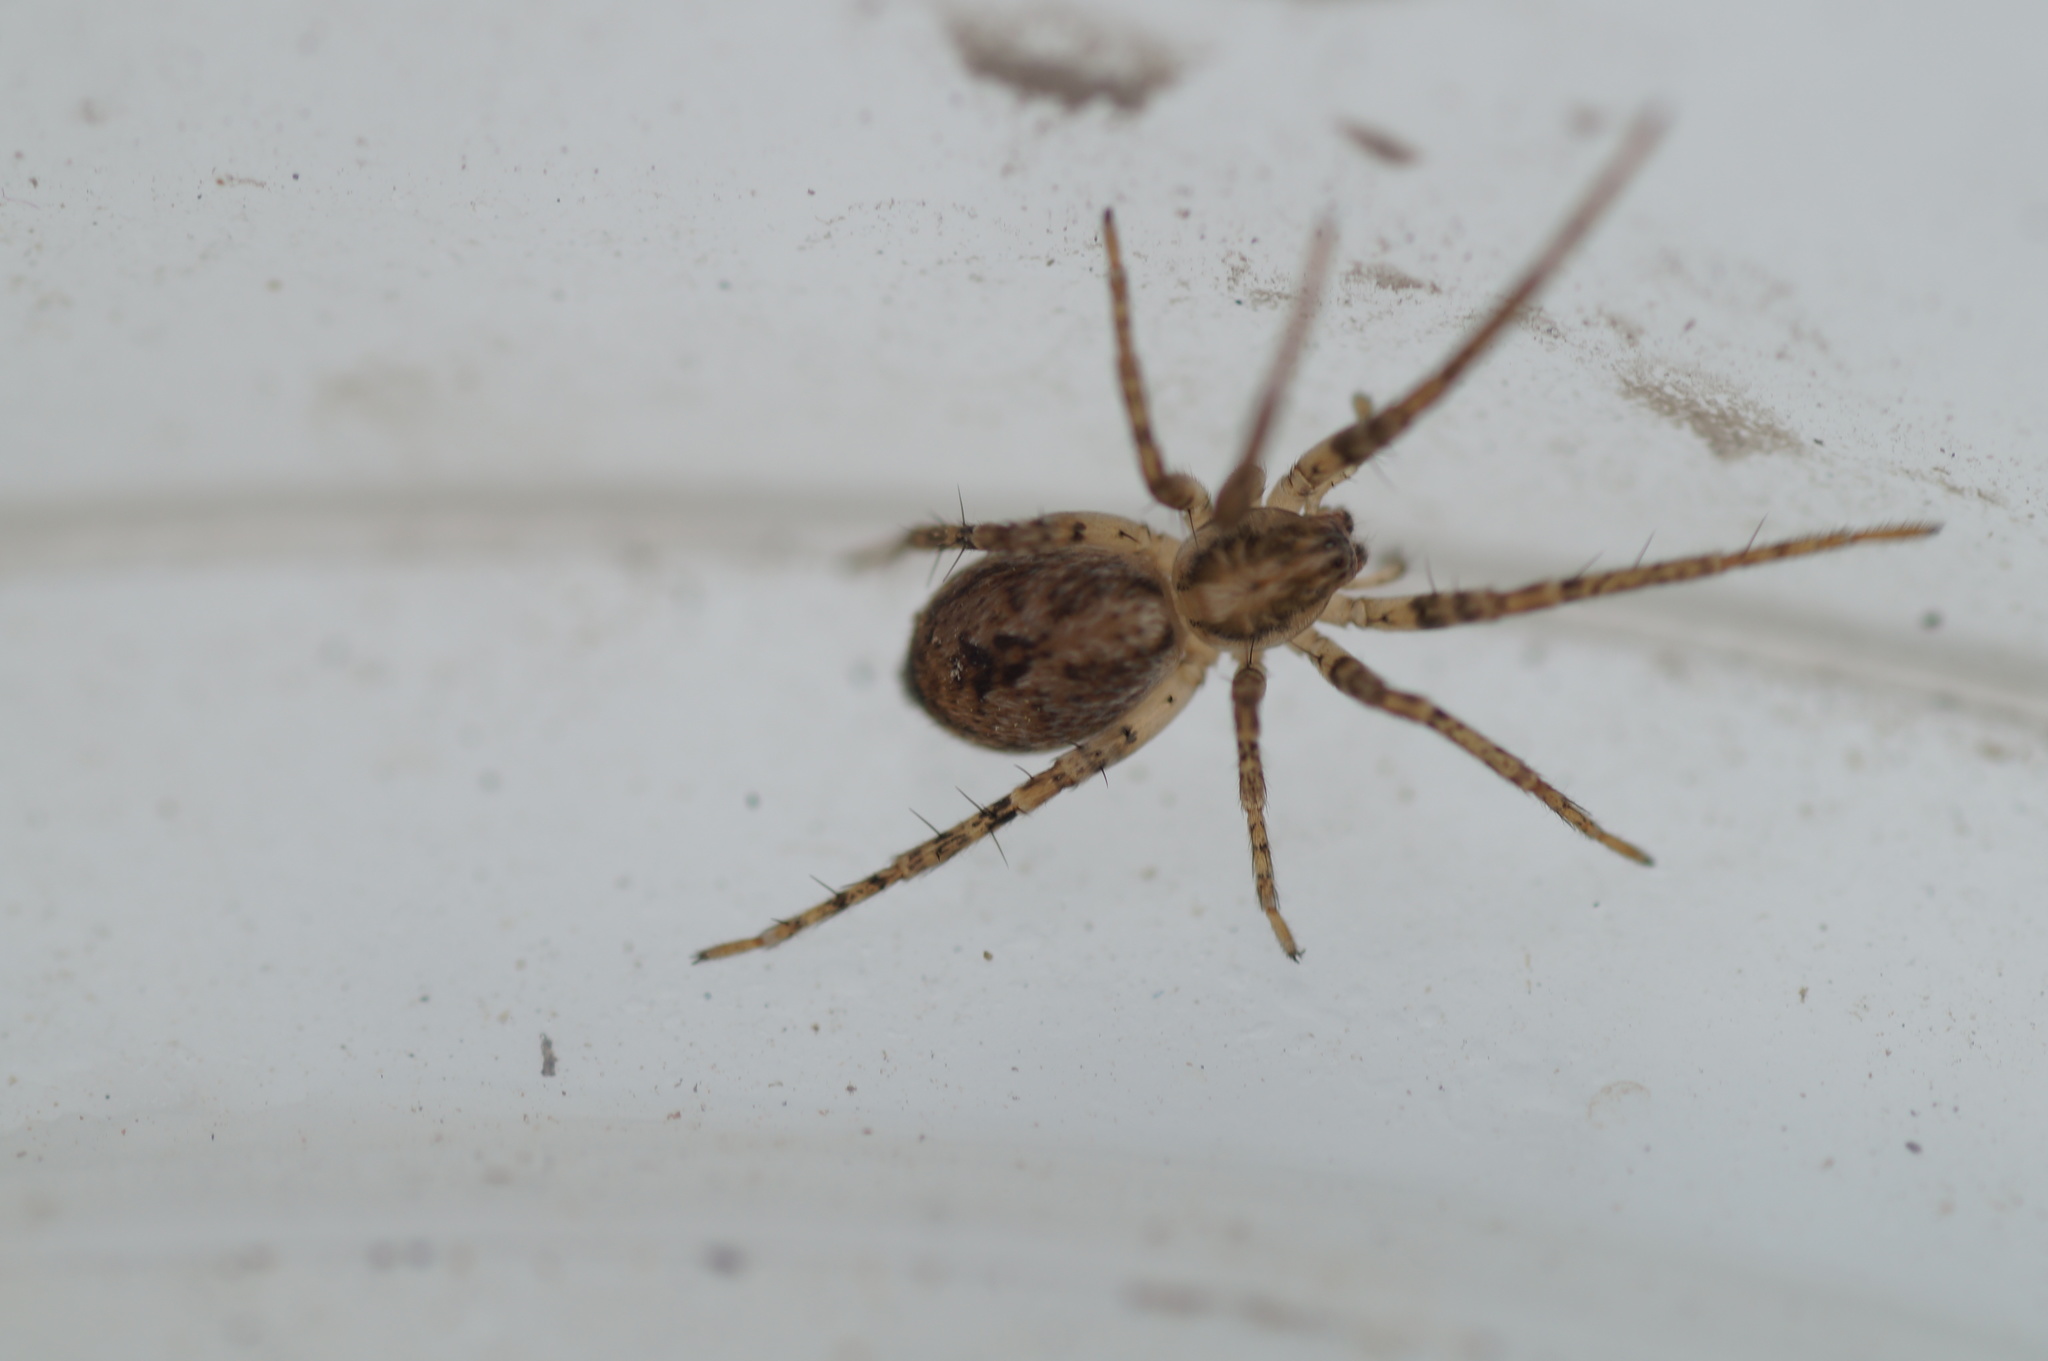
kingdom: Animalia
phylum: Arthropoda
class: Arachnida
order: Araneae
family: Anyphaenidae
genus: Anyphaena
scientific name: Anyphaena accentuata
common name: Buzzing spider
